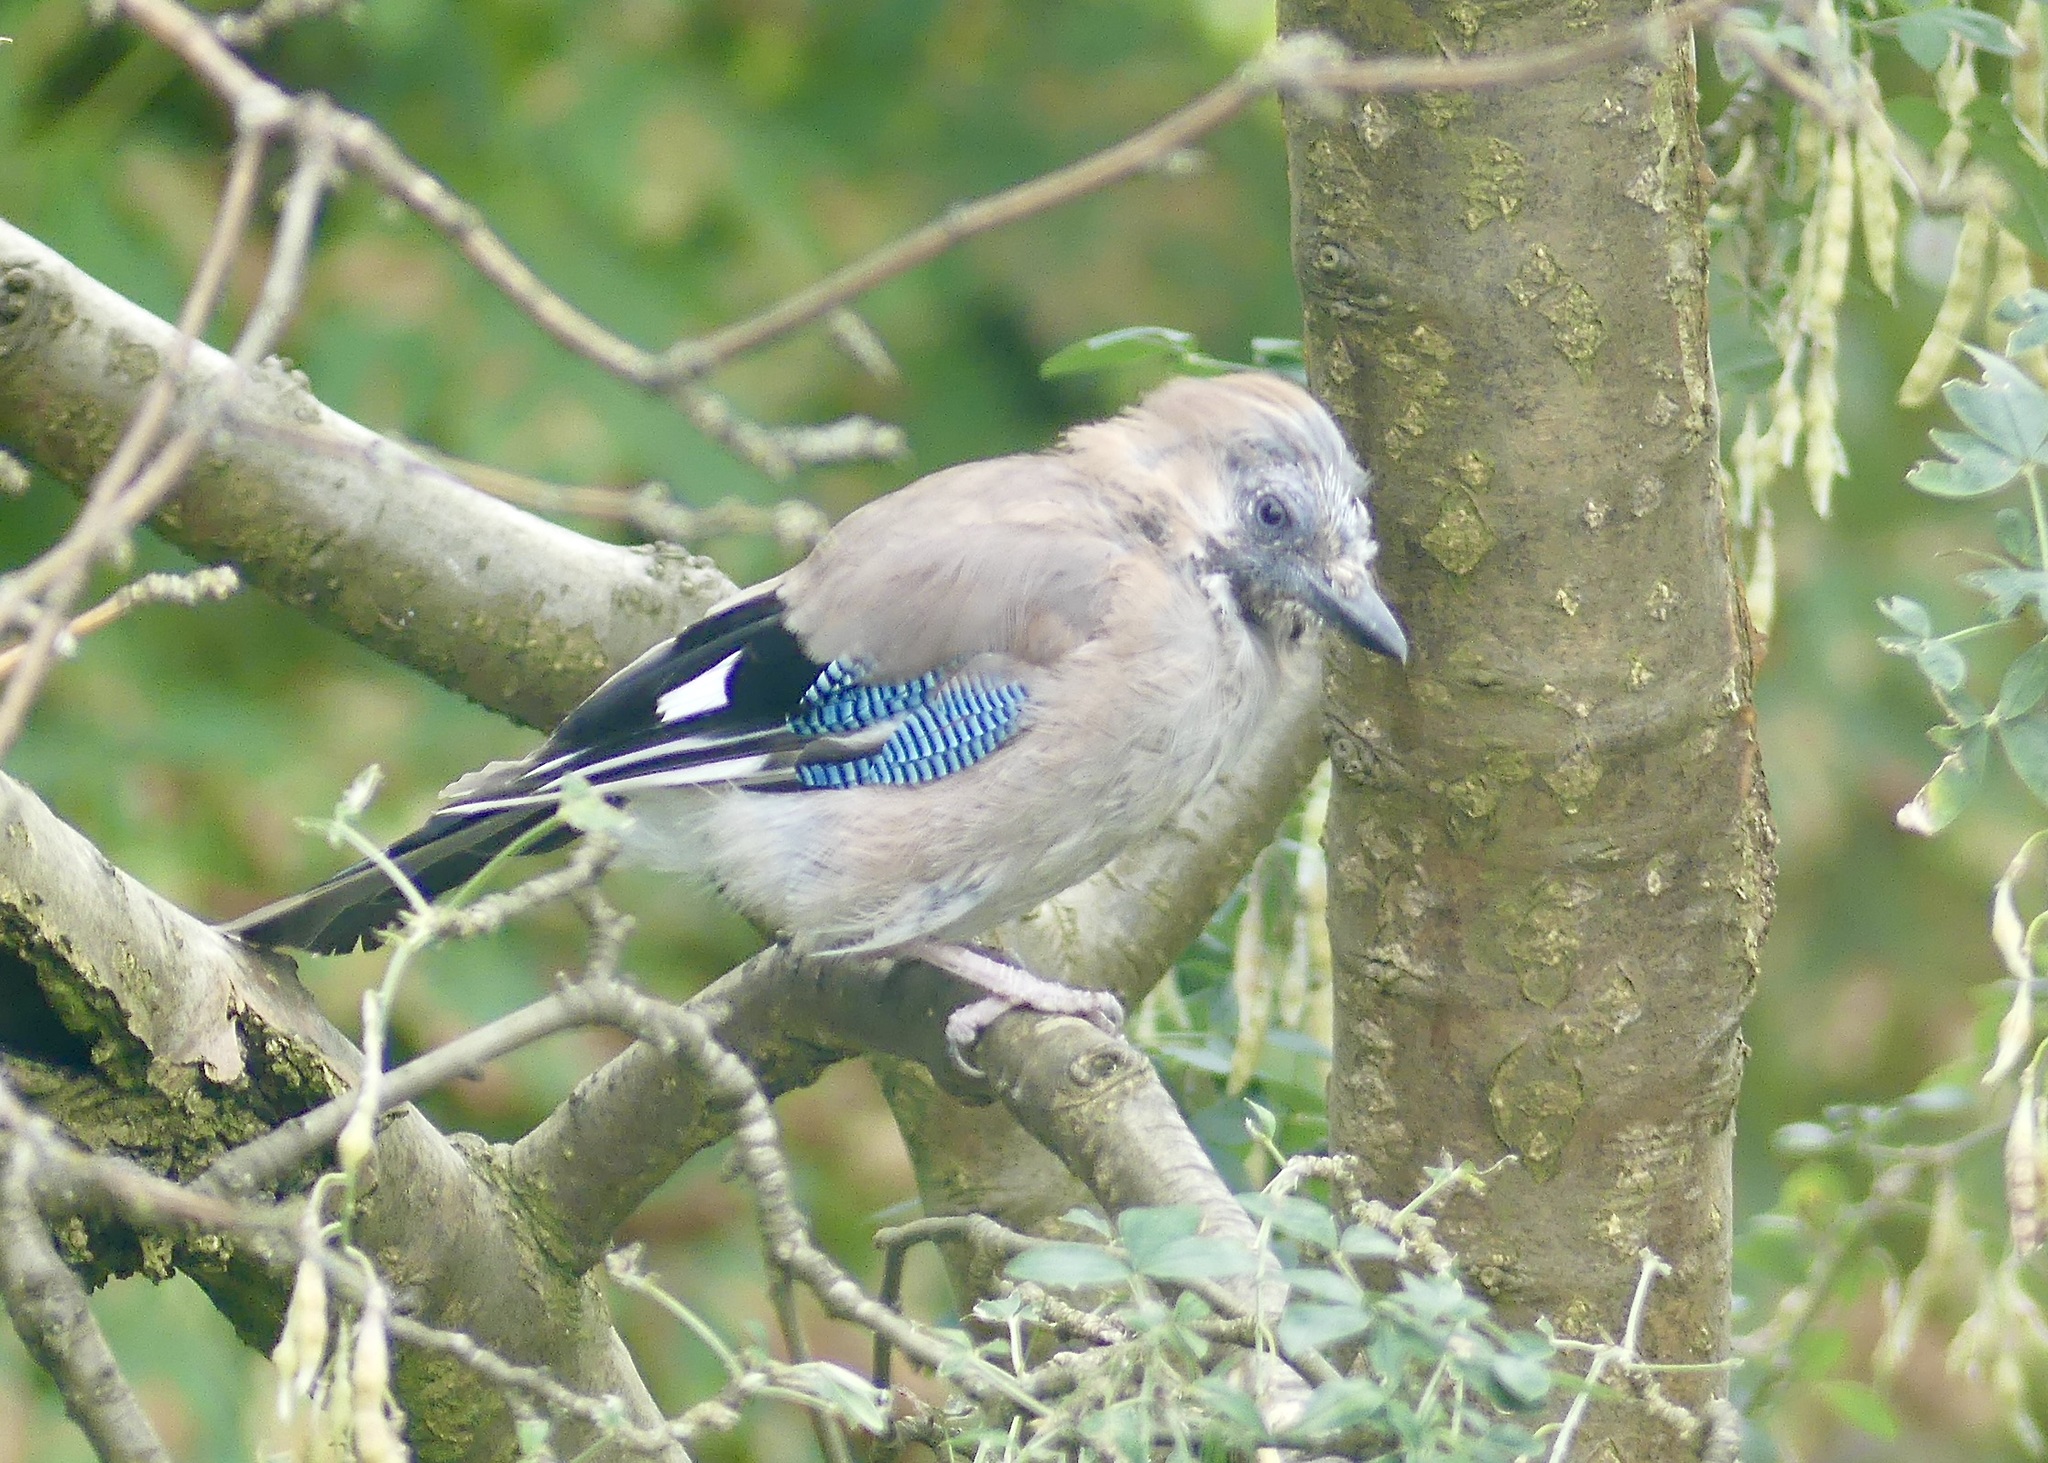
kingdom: Animalia
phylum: Chordata
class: Aves
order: Passeriformes
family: Corvidae
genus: Garrulus
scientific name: Garrulus glandarius
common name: Eurasian jay
